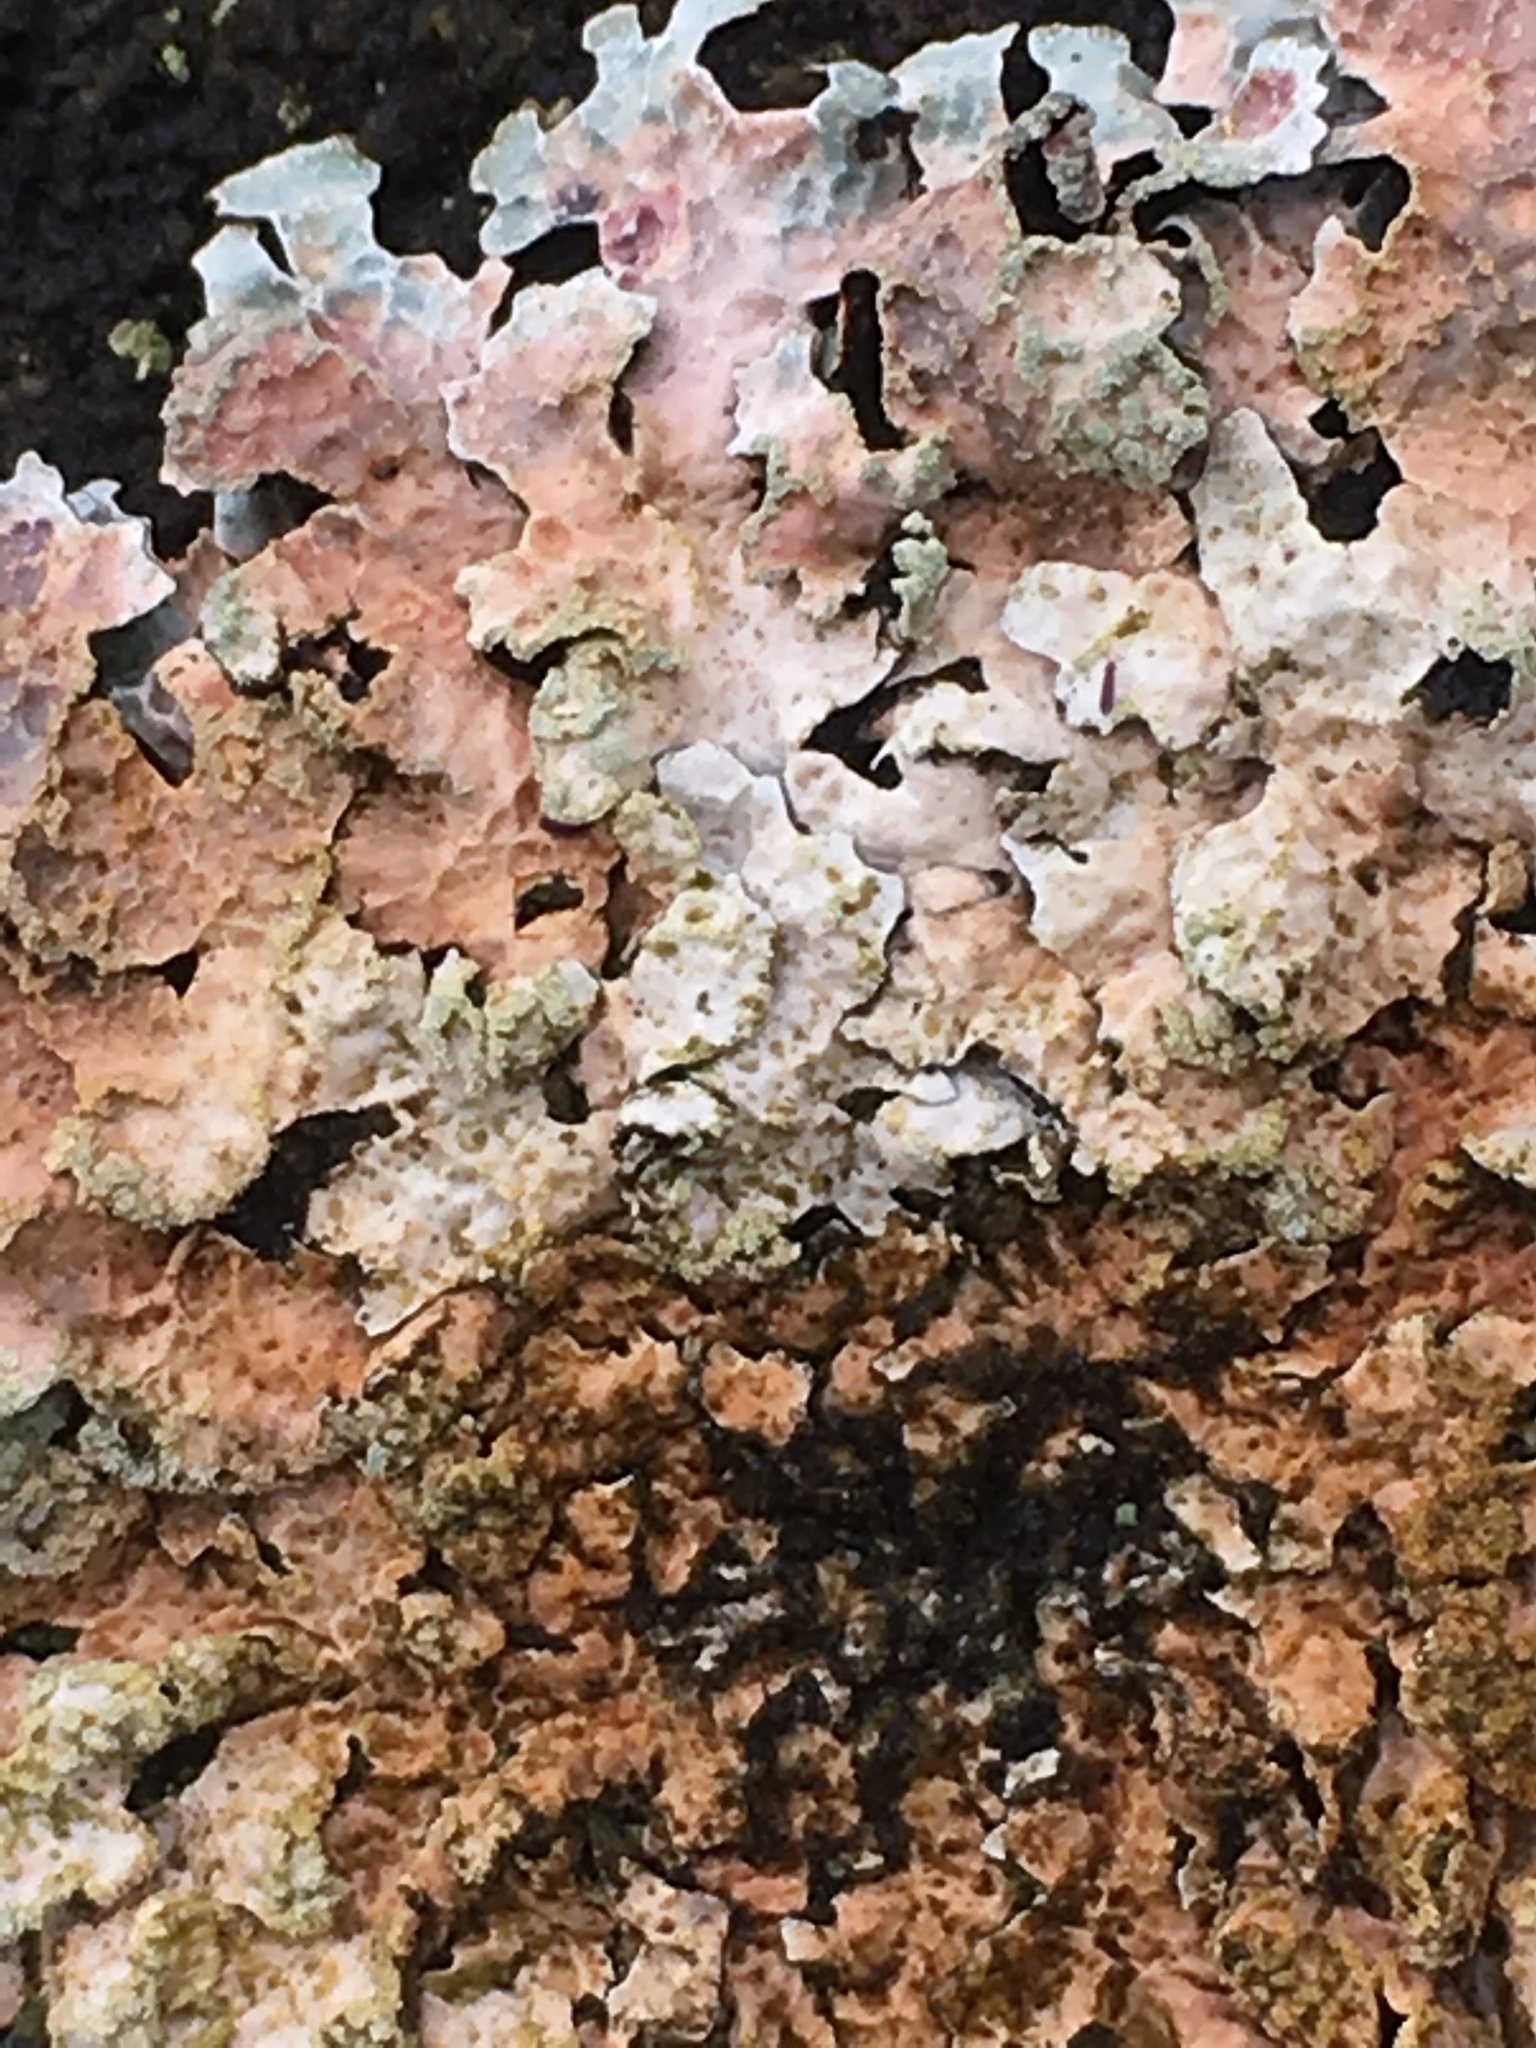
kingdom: Fungi
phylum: Ascomycota
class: Lecanoromycetes
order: Lecanorales
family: Parmeliaceae
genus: Parmelia
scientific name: Parmelia sulcata
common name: Netted shield lichen
